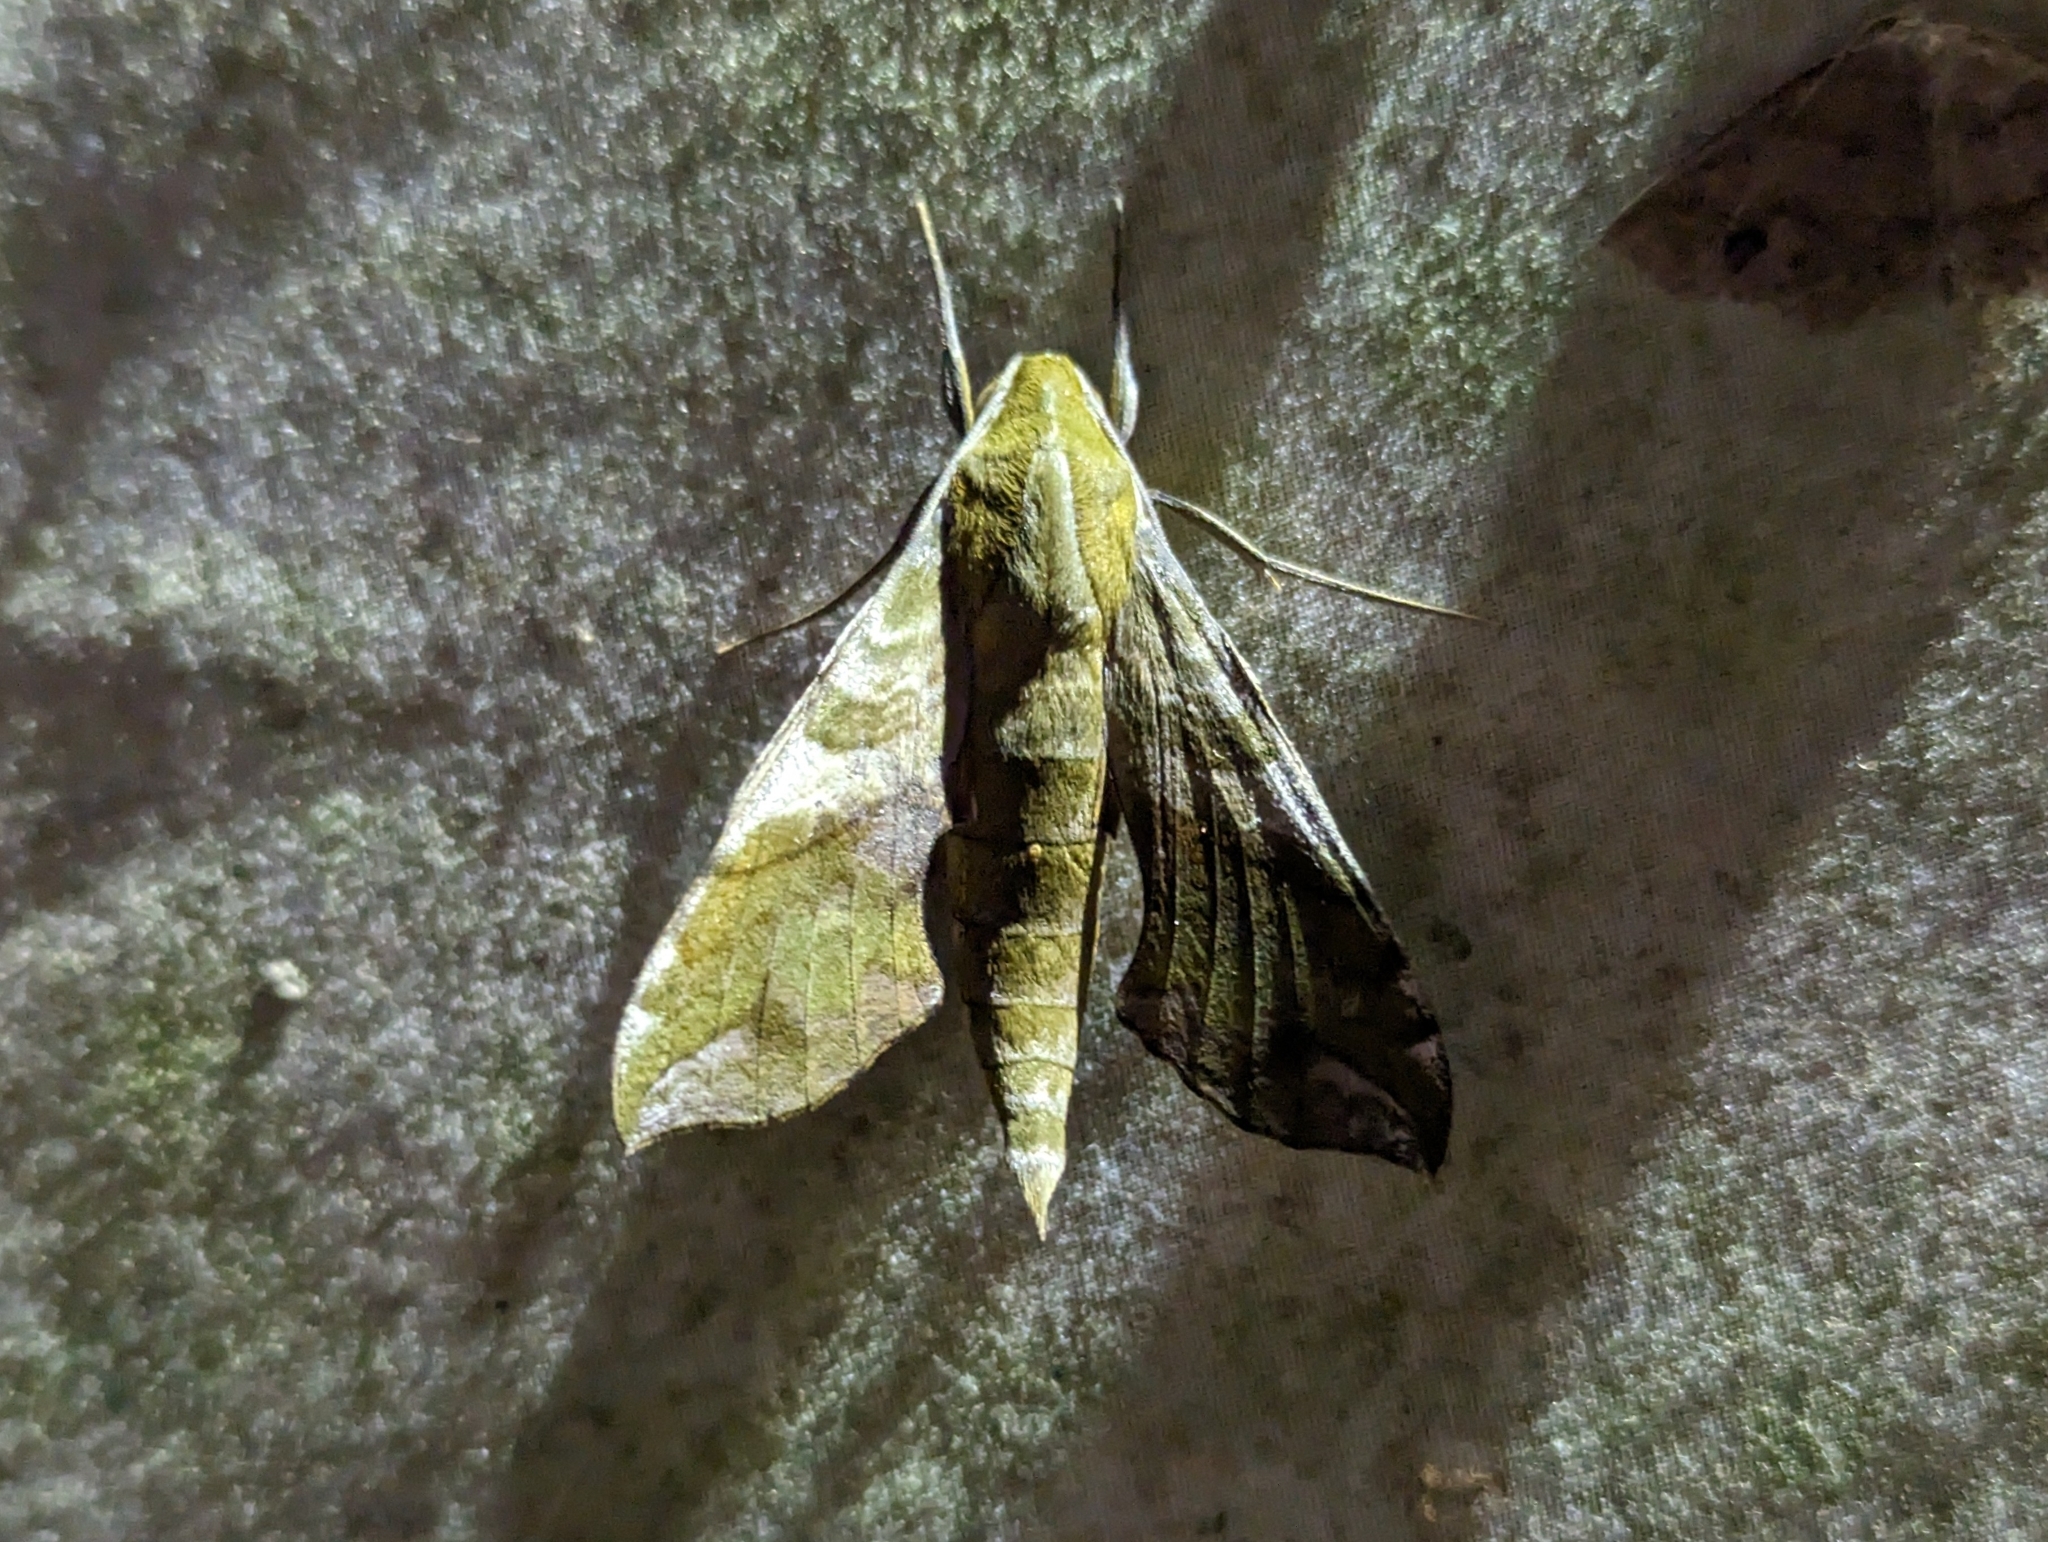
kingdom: Animalia
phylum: Arthropoda
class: Insecta
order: Lepidoptera
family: Sphingidae
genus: Xylophanes
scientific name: Xylophanes pluto
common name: Pluto sphinx
